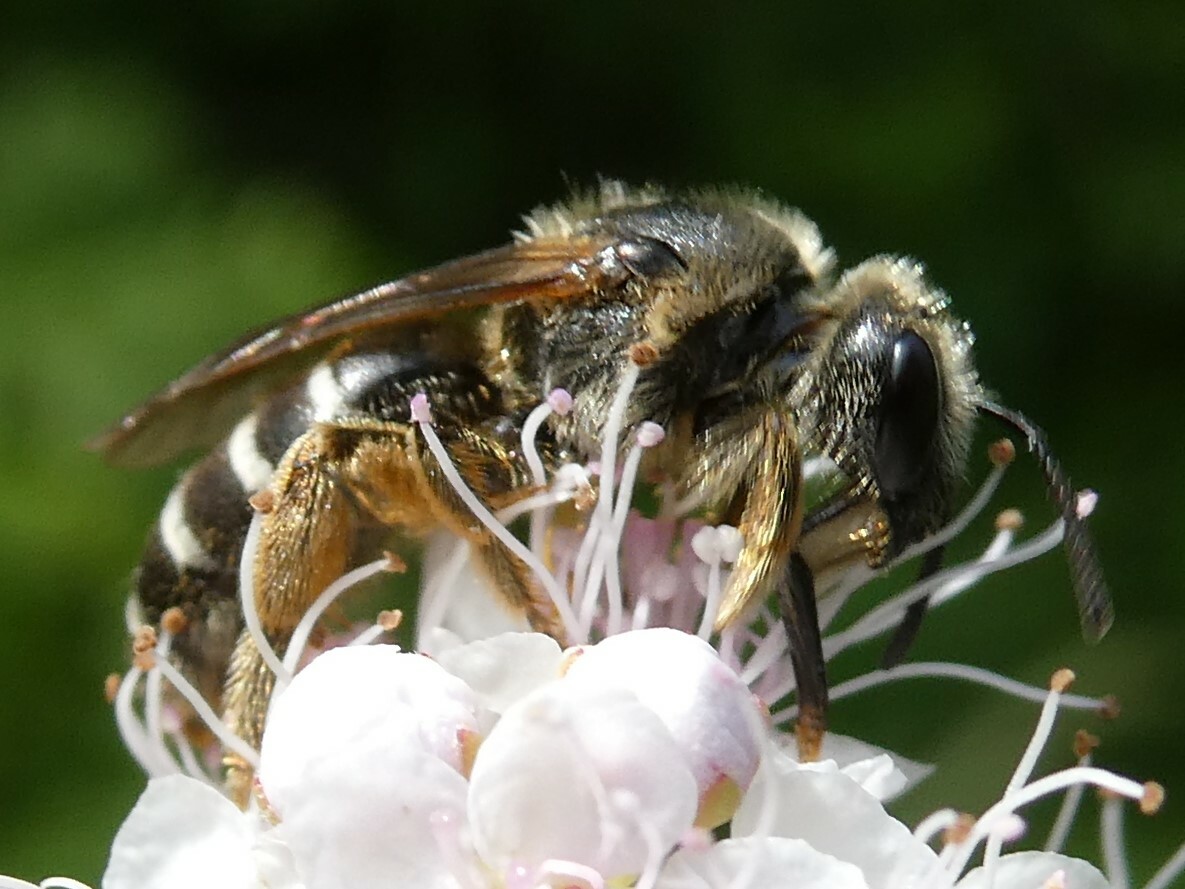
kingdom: Animalia
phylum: Arthropoda
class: Insecta
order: Hymenoptera
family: Halictidae
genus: Halictus
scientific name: Halictus rubicundus
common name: Orange-legged furrow bee
